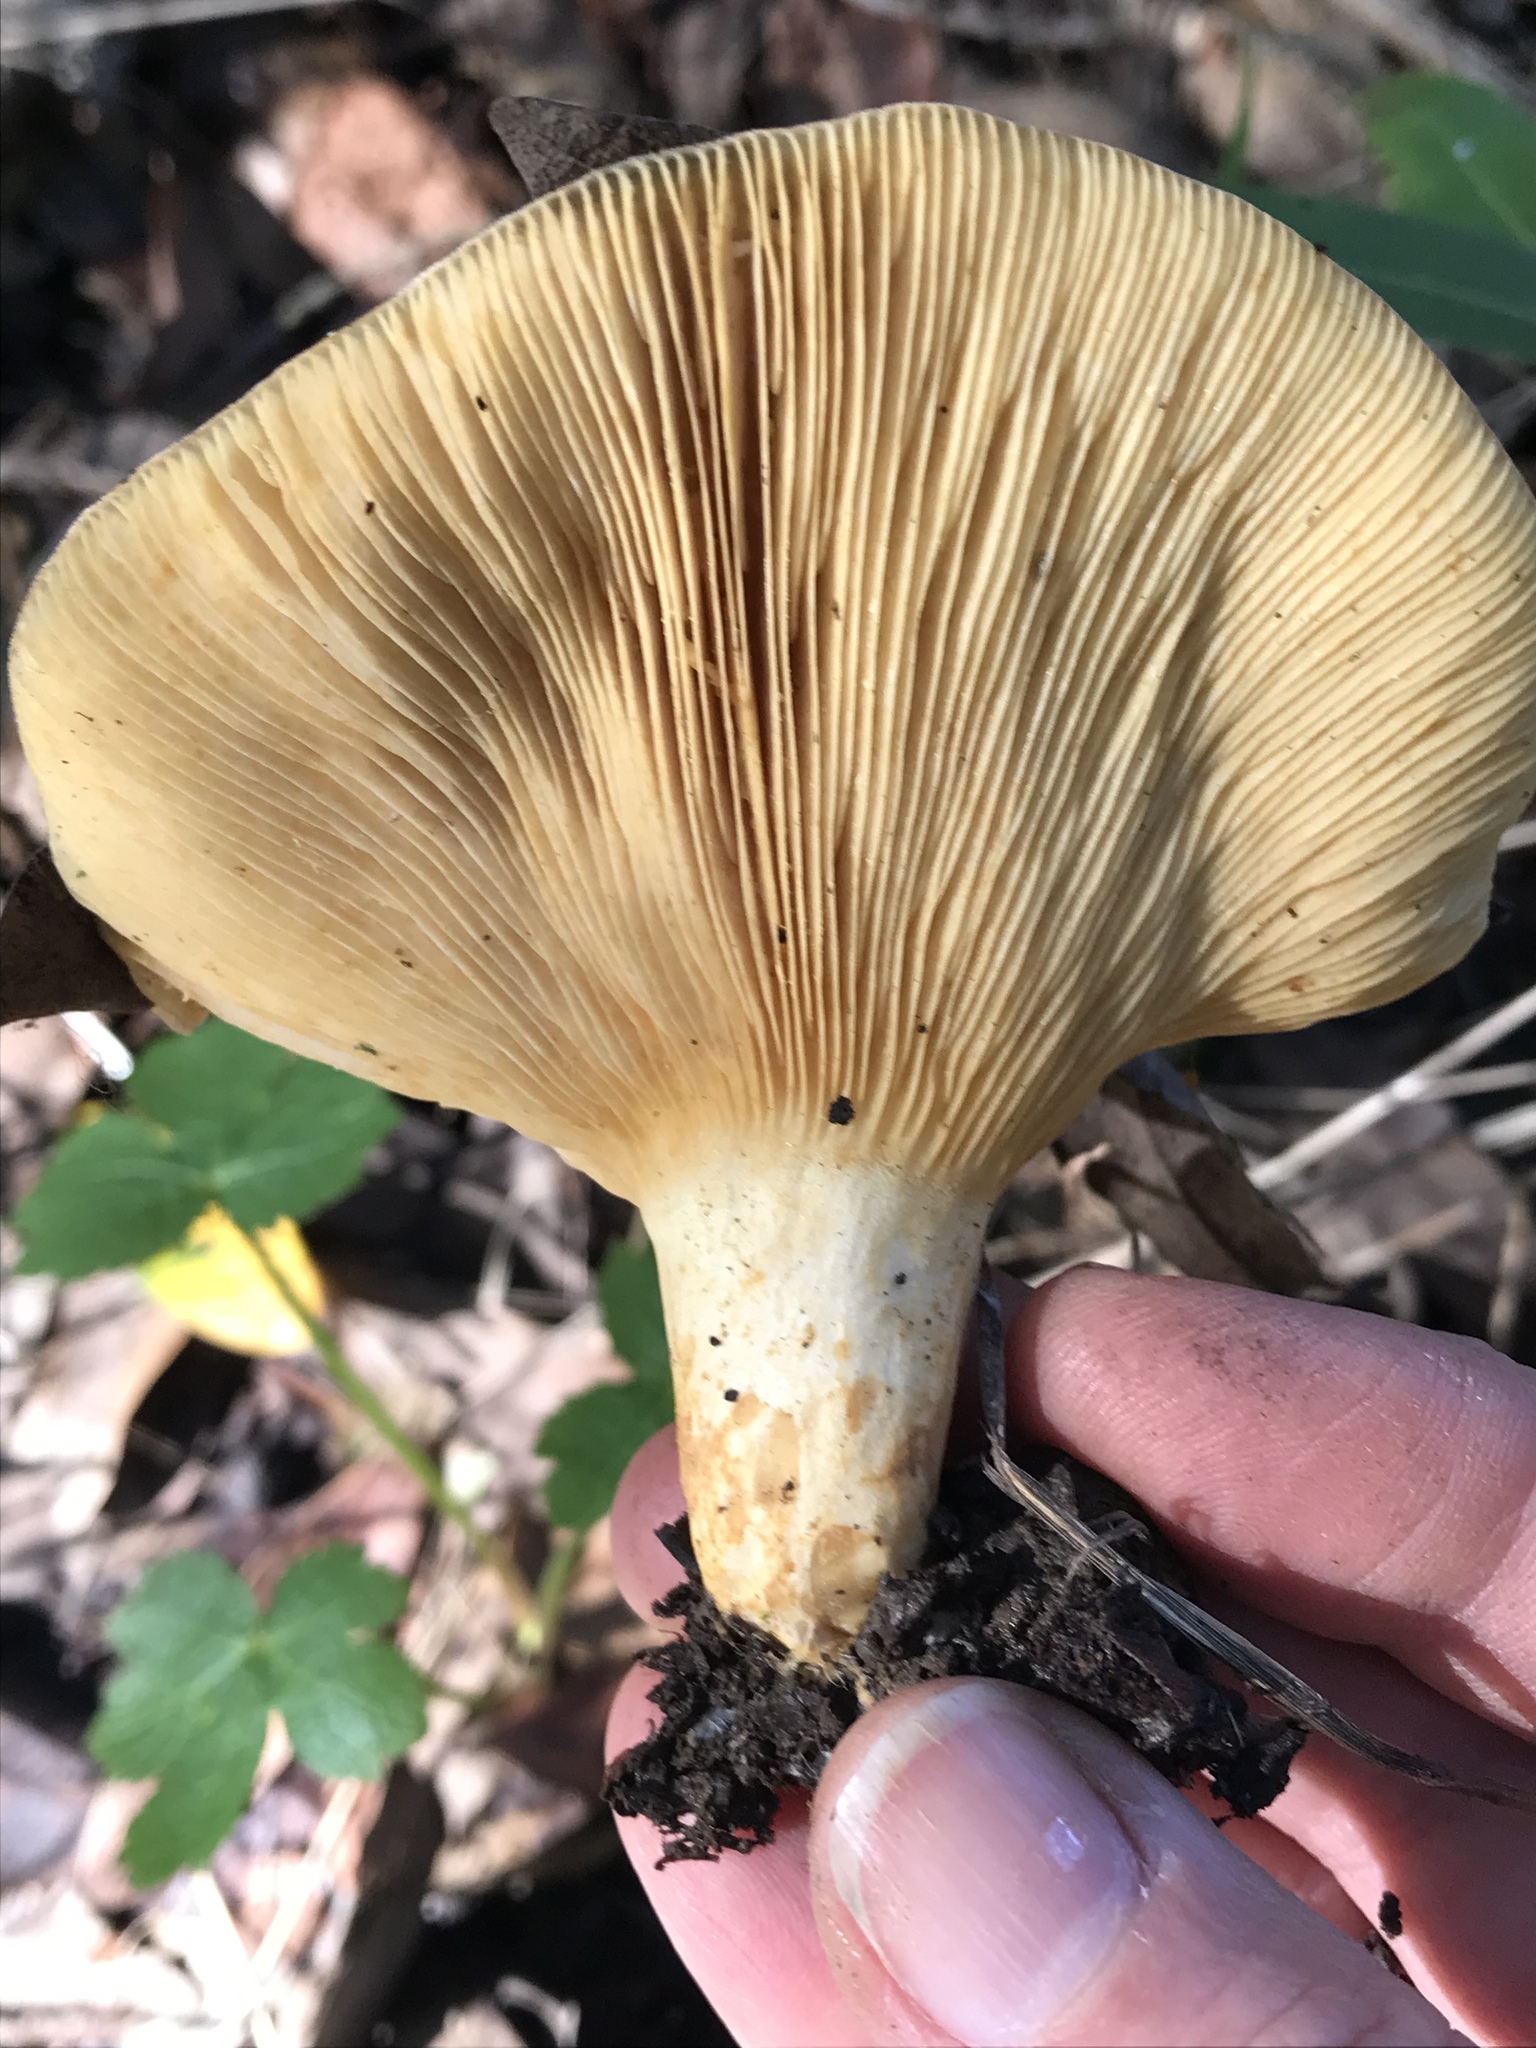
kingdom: Fungi
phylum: Basidiomycota
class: Agaricomycetes
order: Russulales
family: Russulaceae
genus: Lactarius
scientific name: Lactarius alnicola
